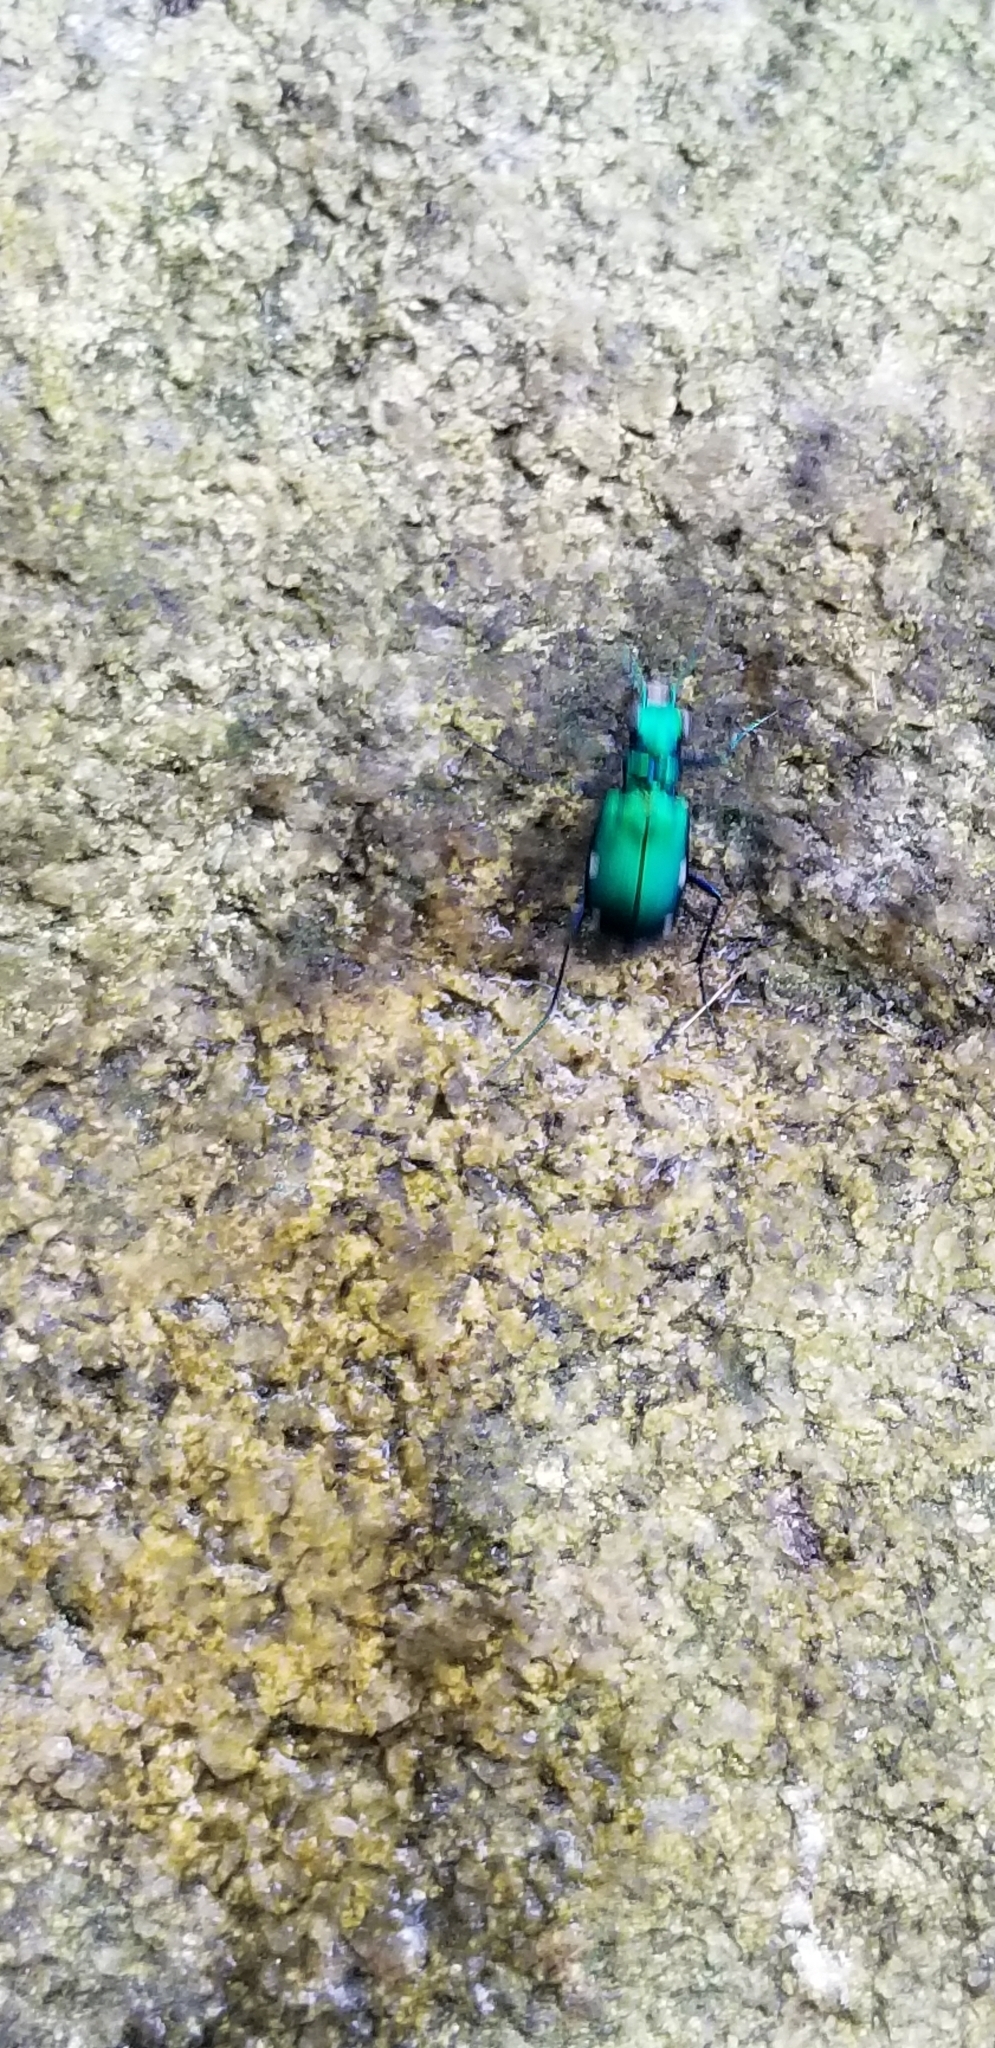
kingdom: Animalia
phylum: Arthropoda
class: Insecta
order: Coleoptera
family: Carabidae
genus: Cicindela
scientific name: Cicindela sexguttata
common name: Six-spotted tiger beetle
